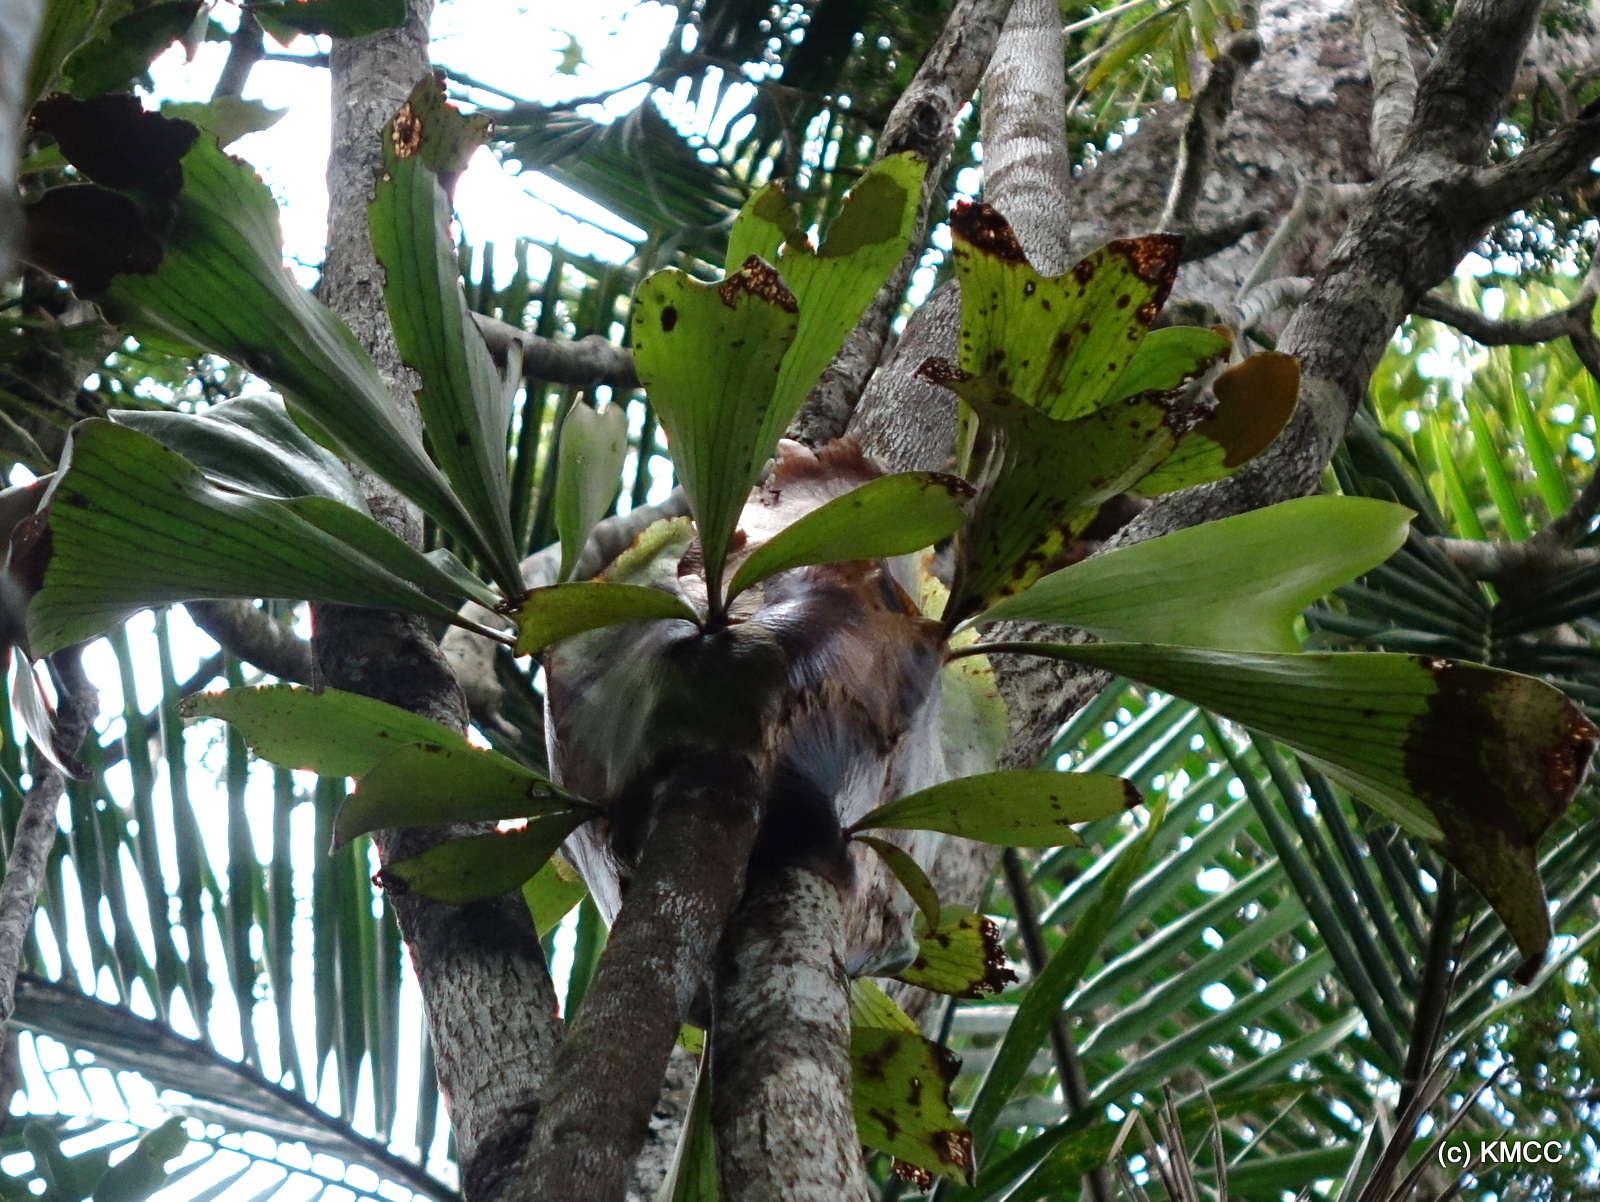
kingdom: Plantae
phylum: Tracheophyta
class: Polypodiopsida
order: Polypodiales
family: Polypodiaceae
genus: Platycerium
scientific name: Platycerium ellisii
